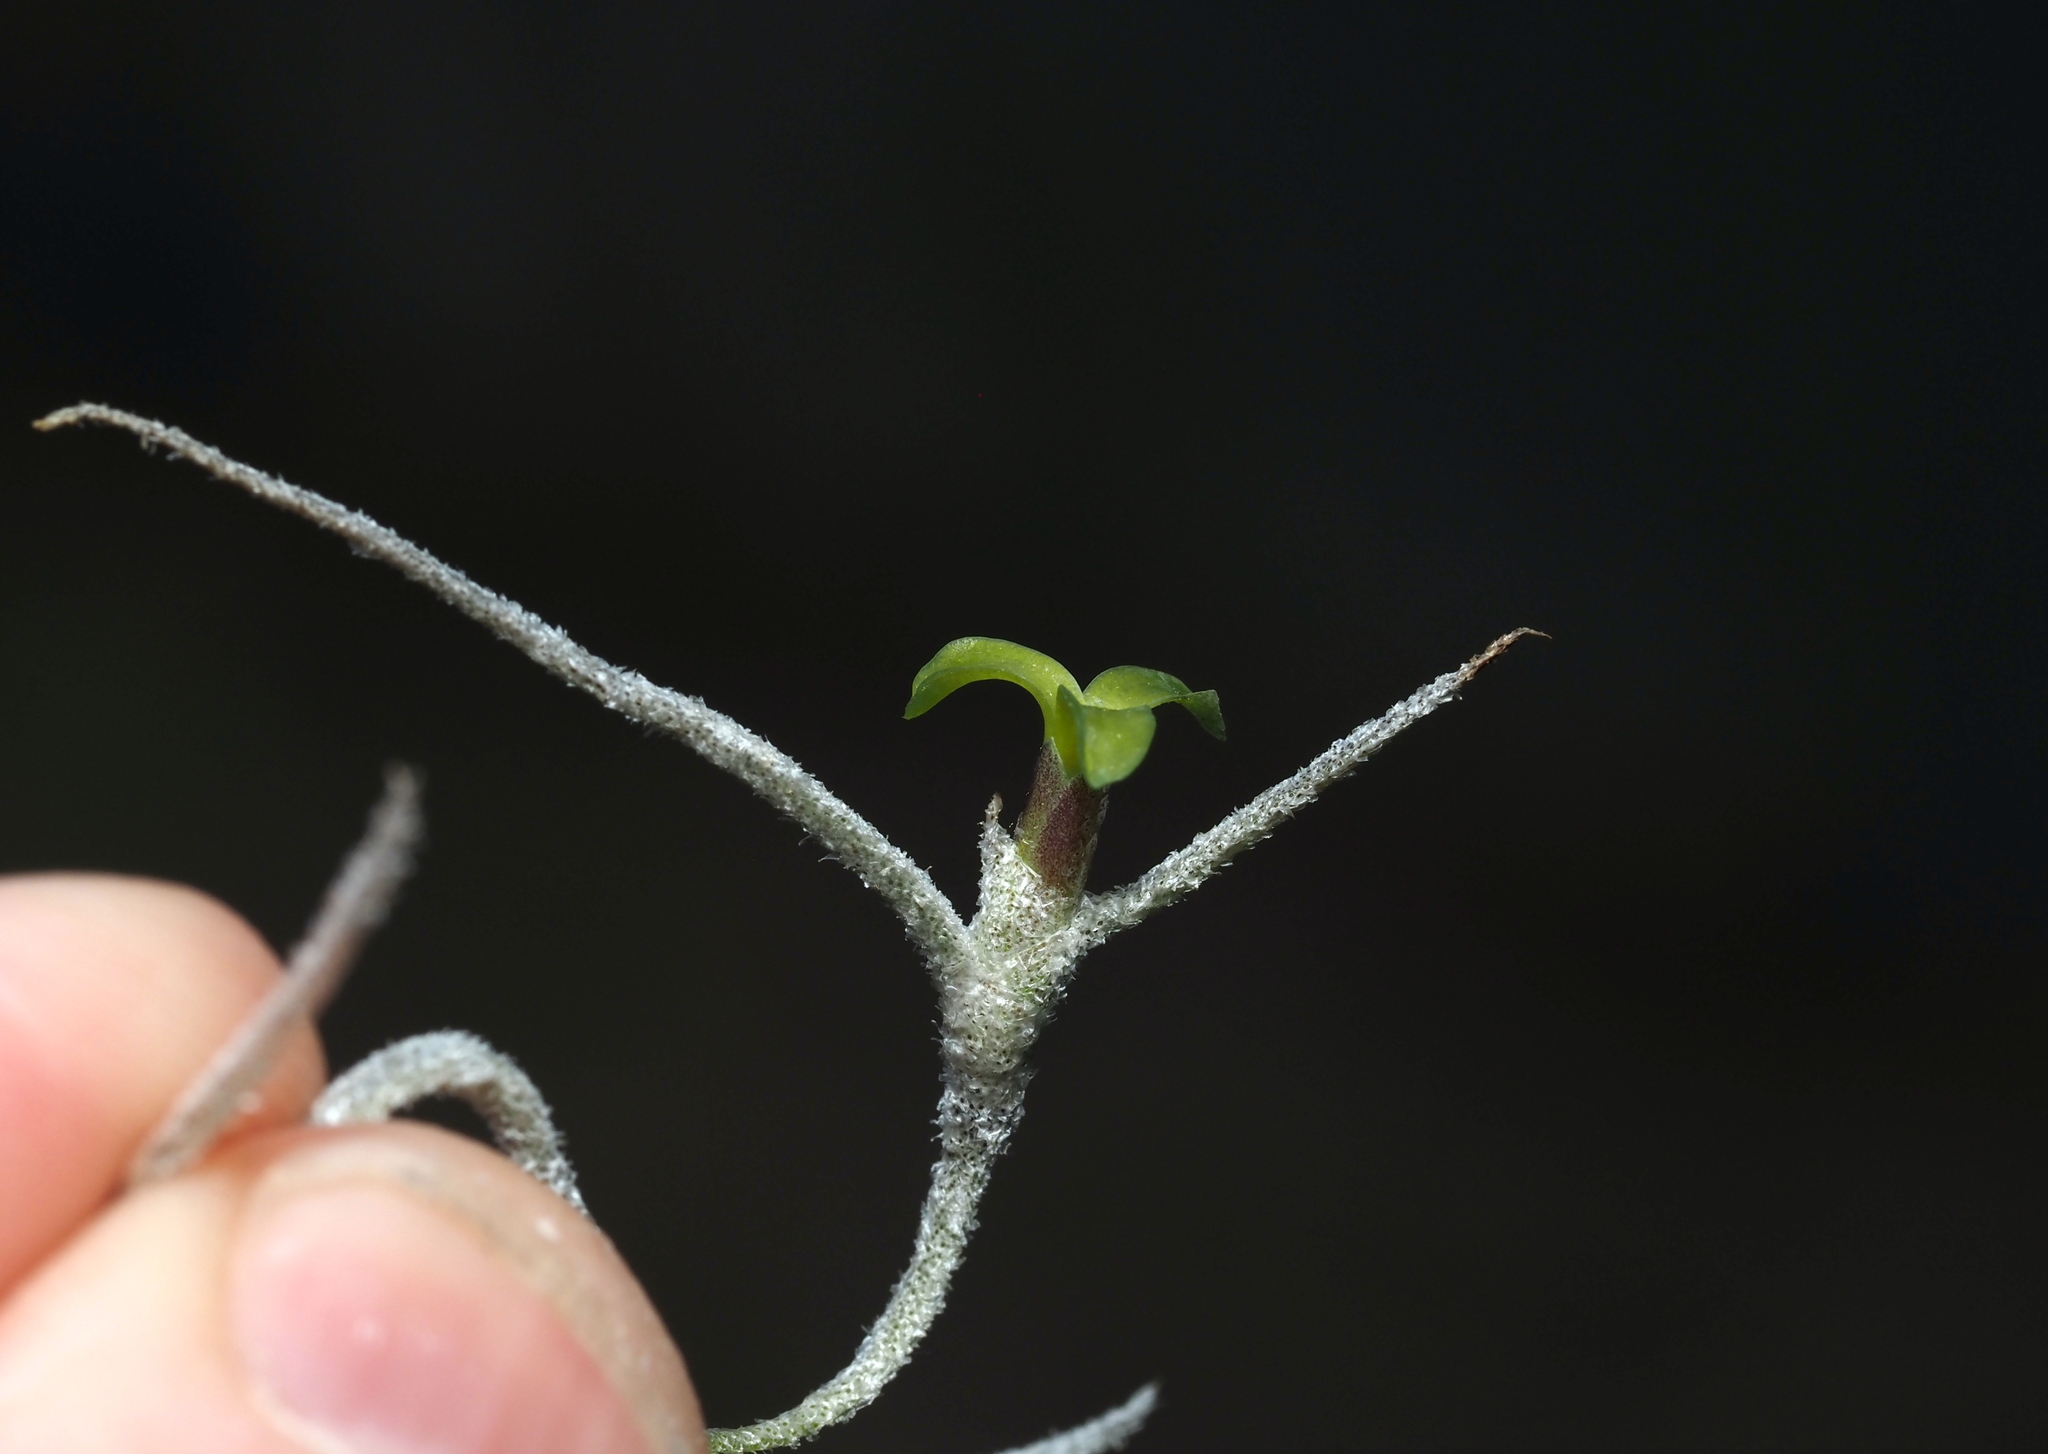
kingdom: Plantae
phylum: Tracheophyta
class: Liliopsida
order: Poales
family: Bromeliaceae
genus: Tillandsia
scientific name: Tillandsia usneoides
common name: Spanish moss
